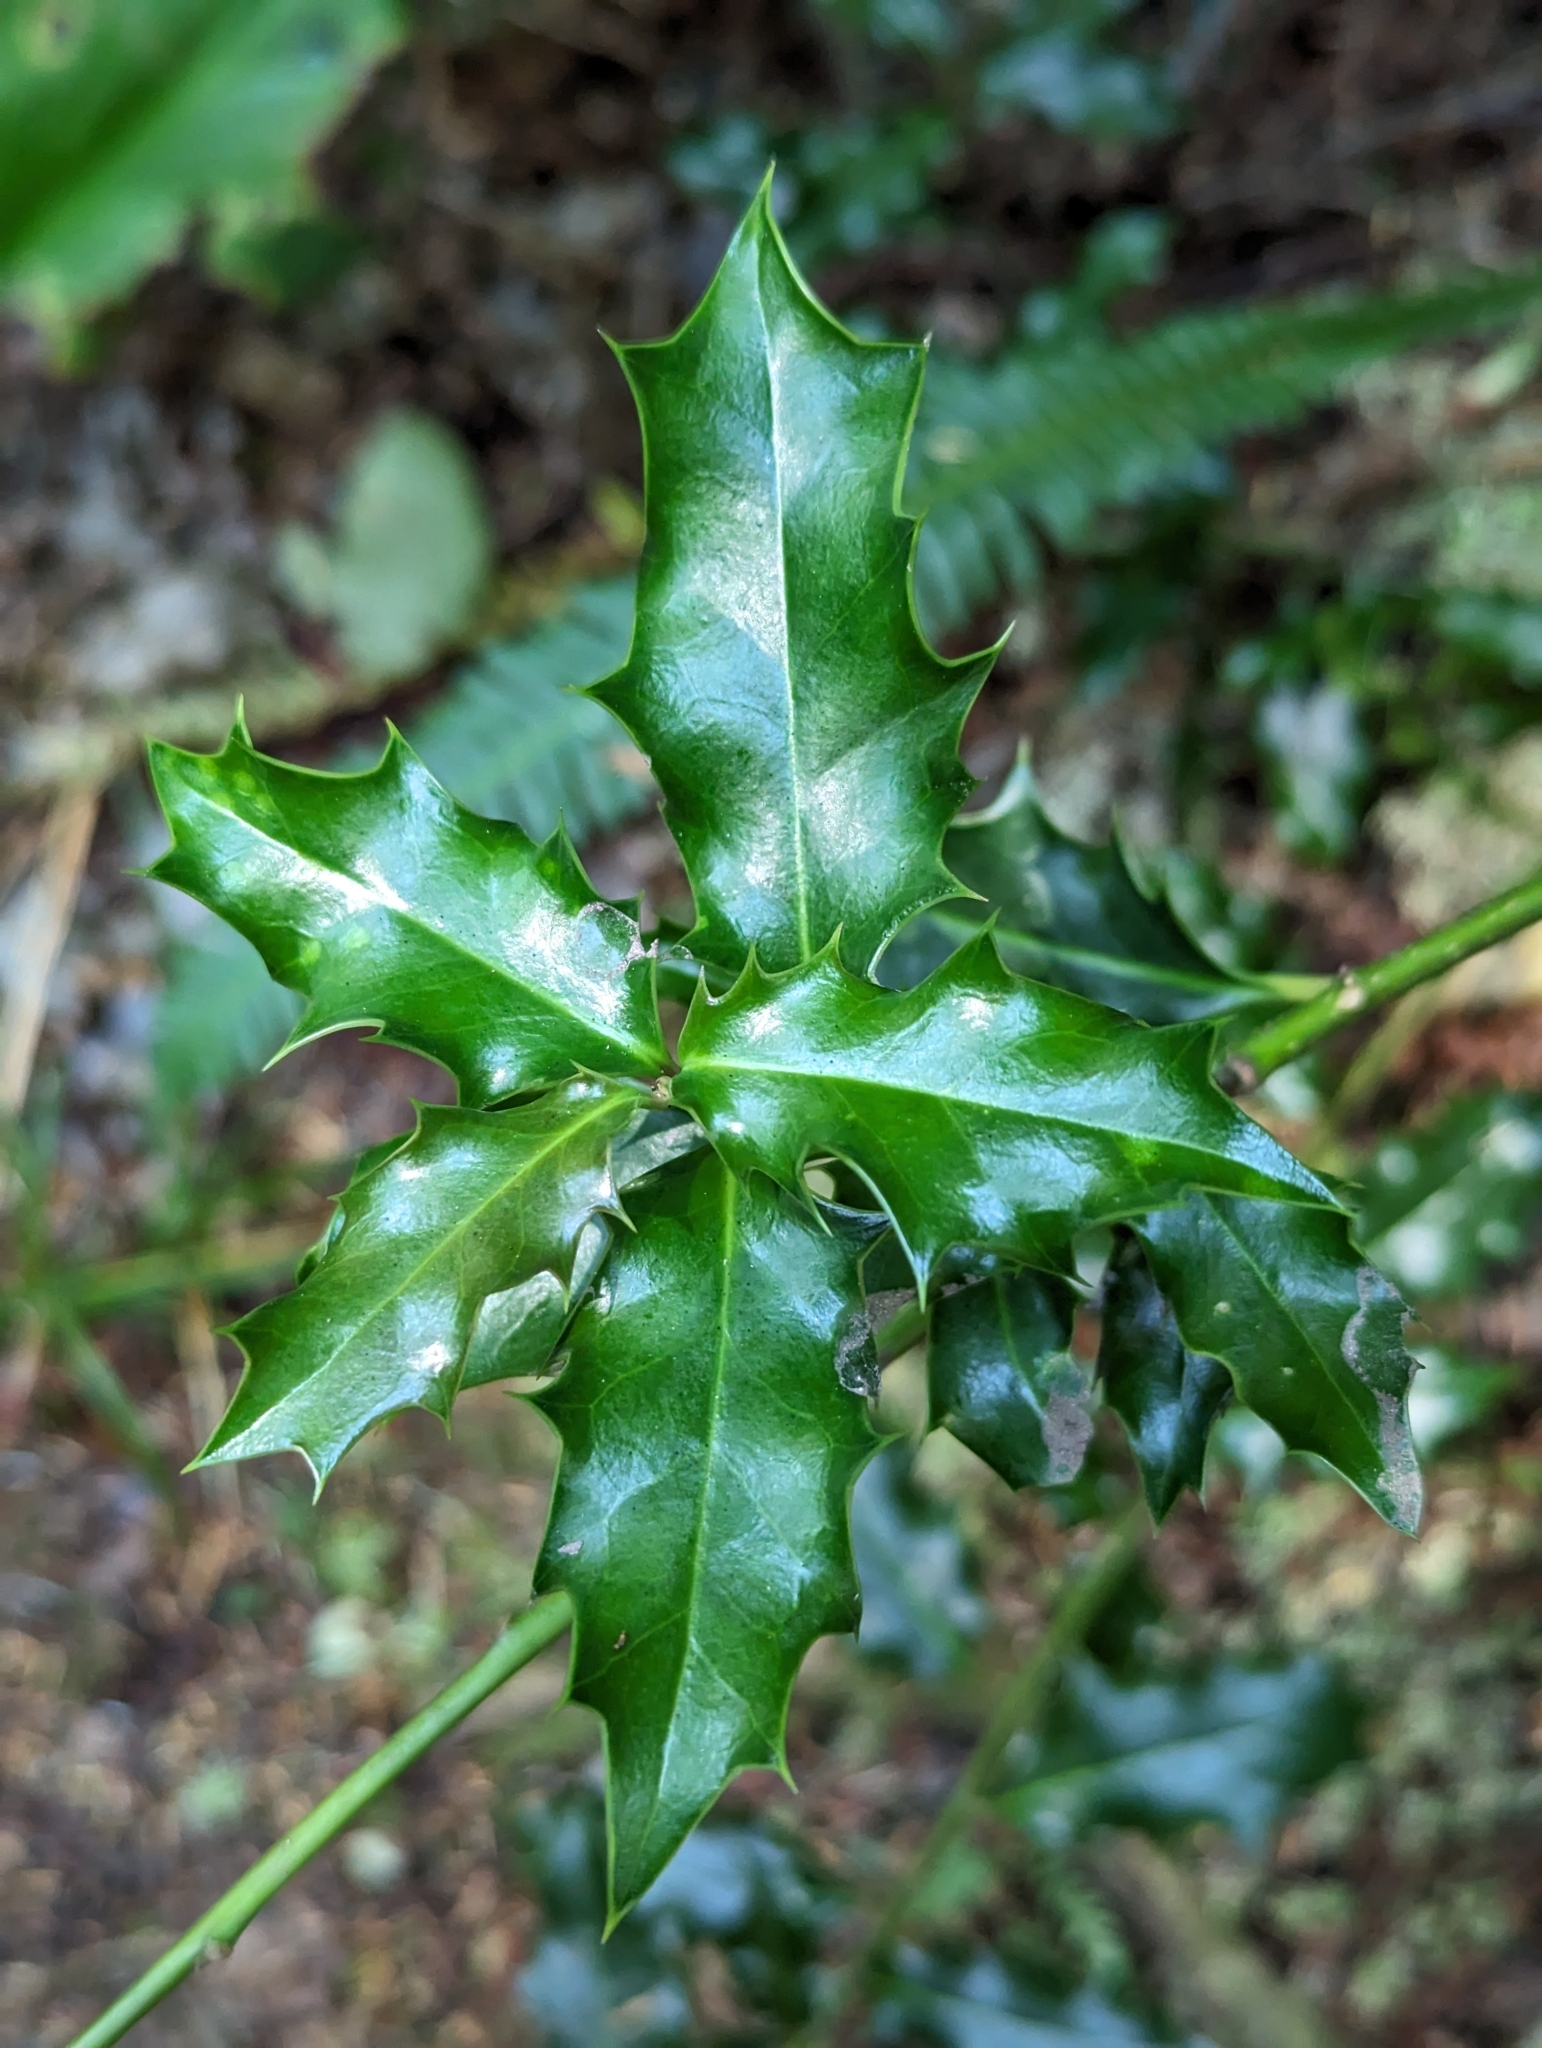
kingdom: Plantae
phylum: Tracheophyta
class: Magnoliopsida
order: Aquifoliales
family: Aquifoliaceae
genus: Ilex
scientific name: Ilex aquifolium
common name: English holly
